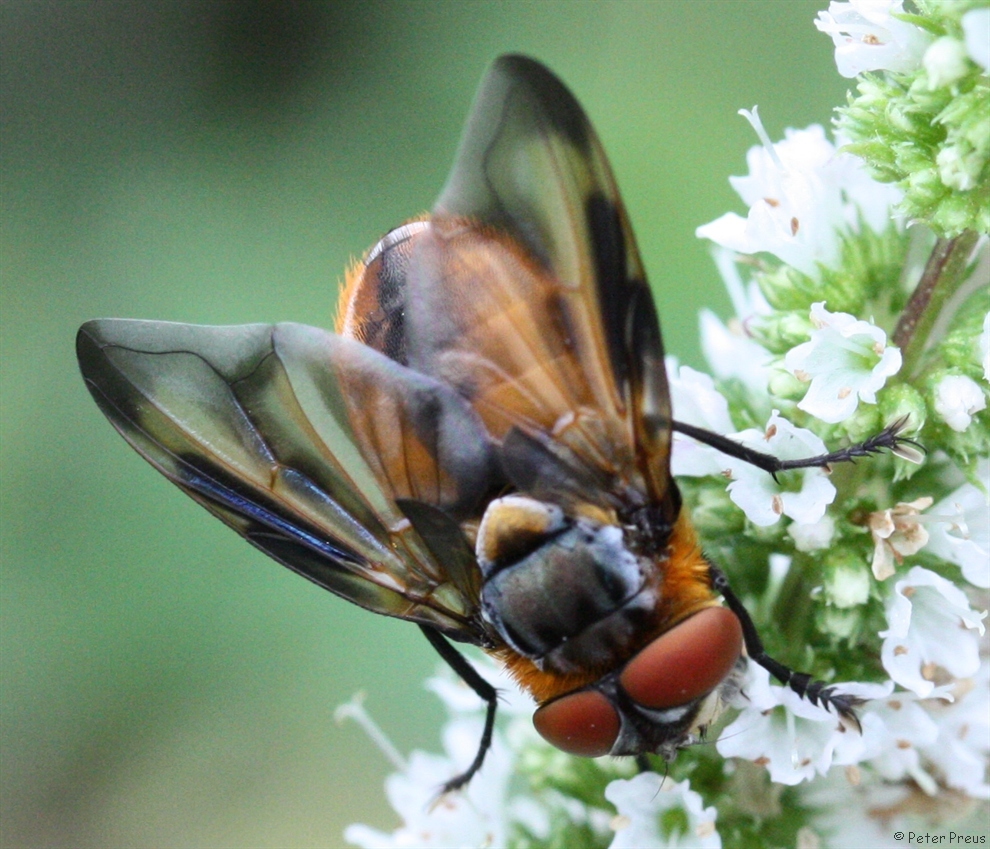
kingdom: Animalia
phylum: Arthropoda
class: Insecta
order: Diptera
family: Tachinidae
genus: Phasia
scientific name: Phasia hemiptera
